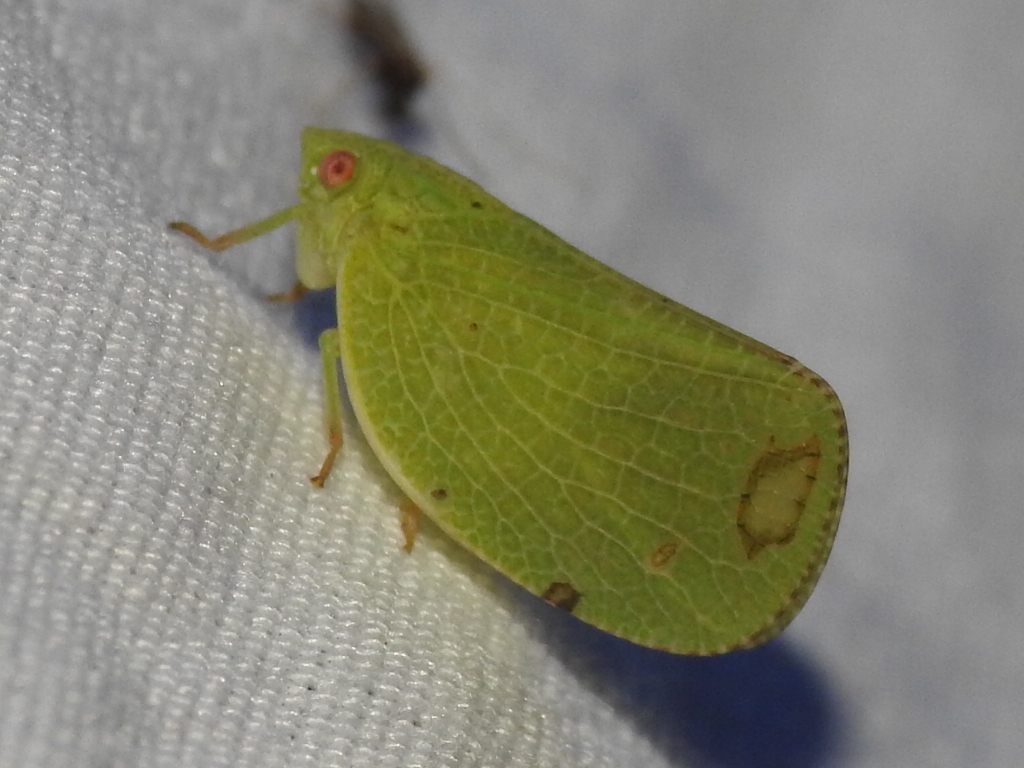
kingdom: Animalia
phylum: Arthropoda
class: Insecta
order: Hemiptera
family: Acanaloniidae
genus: Acanalonia
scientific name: Acanalonia conica
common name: Green cone-headed planthopper
